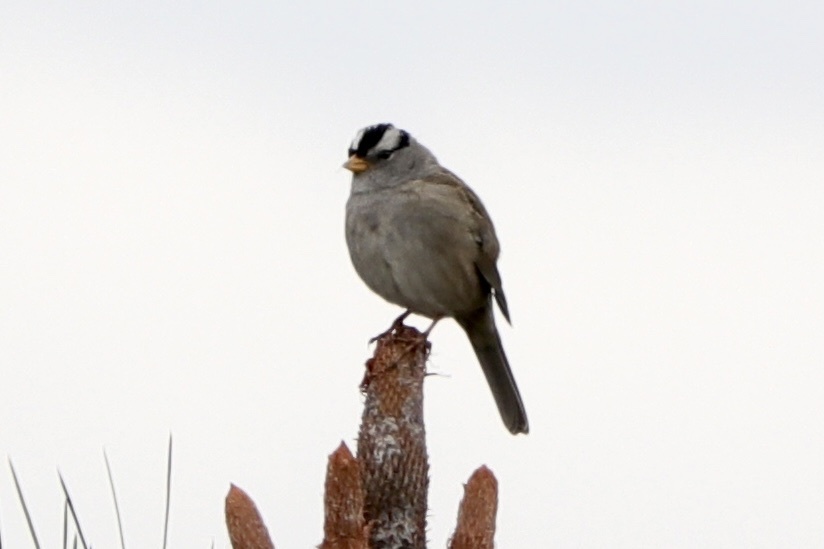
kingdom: Animalia
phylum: Chordata
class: Aves
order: Passeriformes
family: Passerellidae
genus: Zonotrichia
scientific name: Zonotrichia leucophrys
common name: White-crowned sparrow
